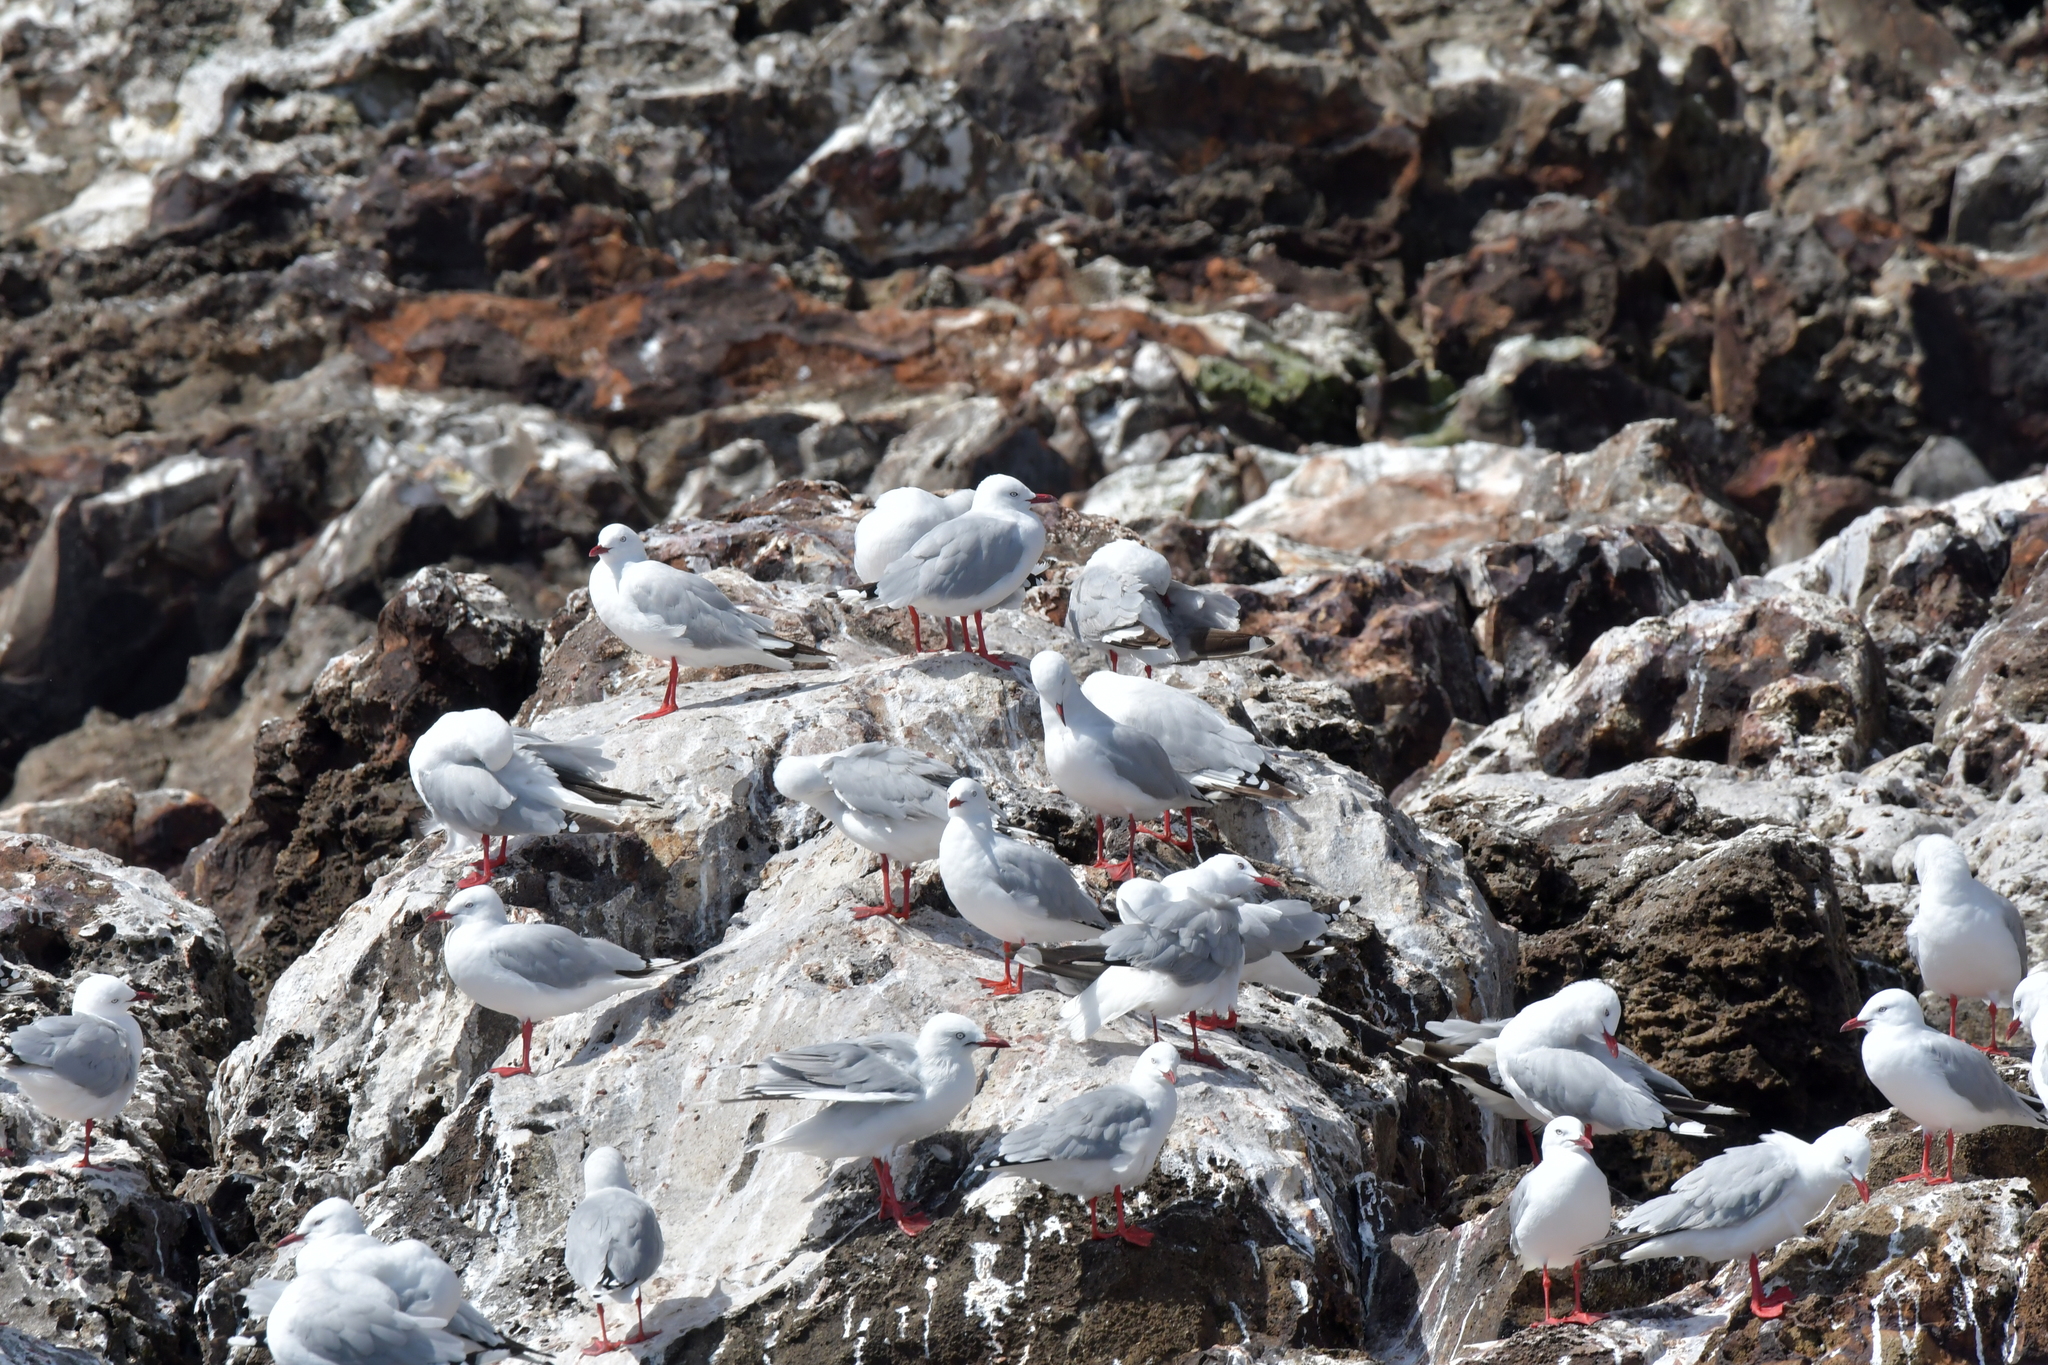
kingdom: Animalia
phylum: Chordata
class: Aves
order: Charadriiformes
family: Laridae
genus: Chroicocephalus
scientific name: Chroicocephalus novaehollandiae
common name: Silver gull
